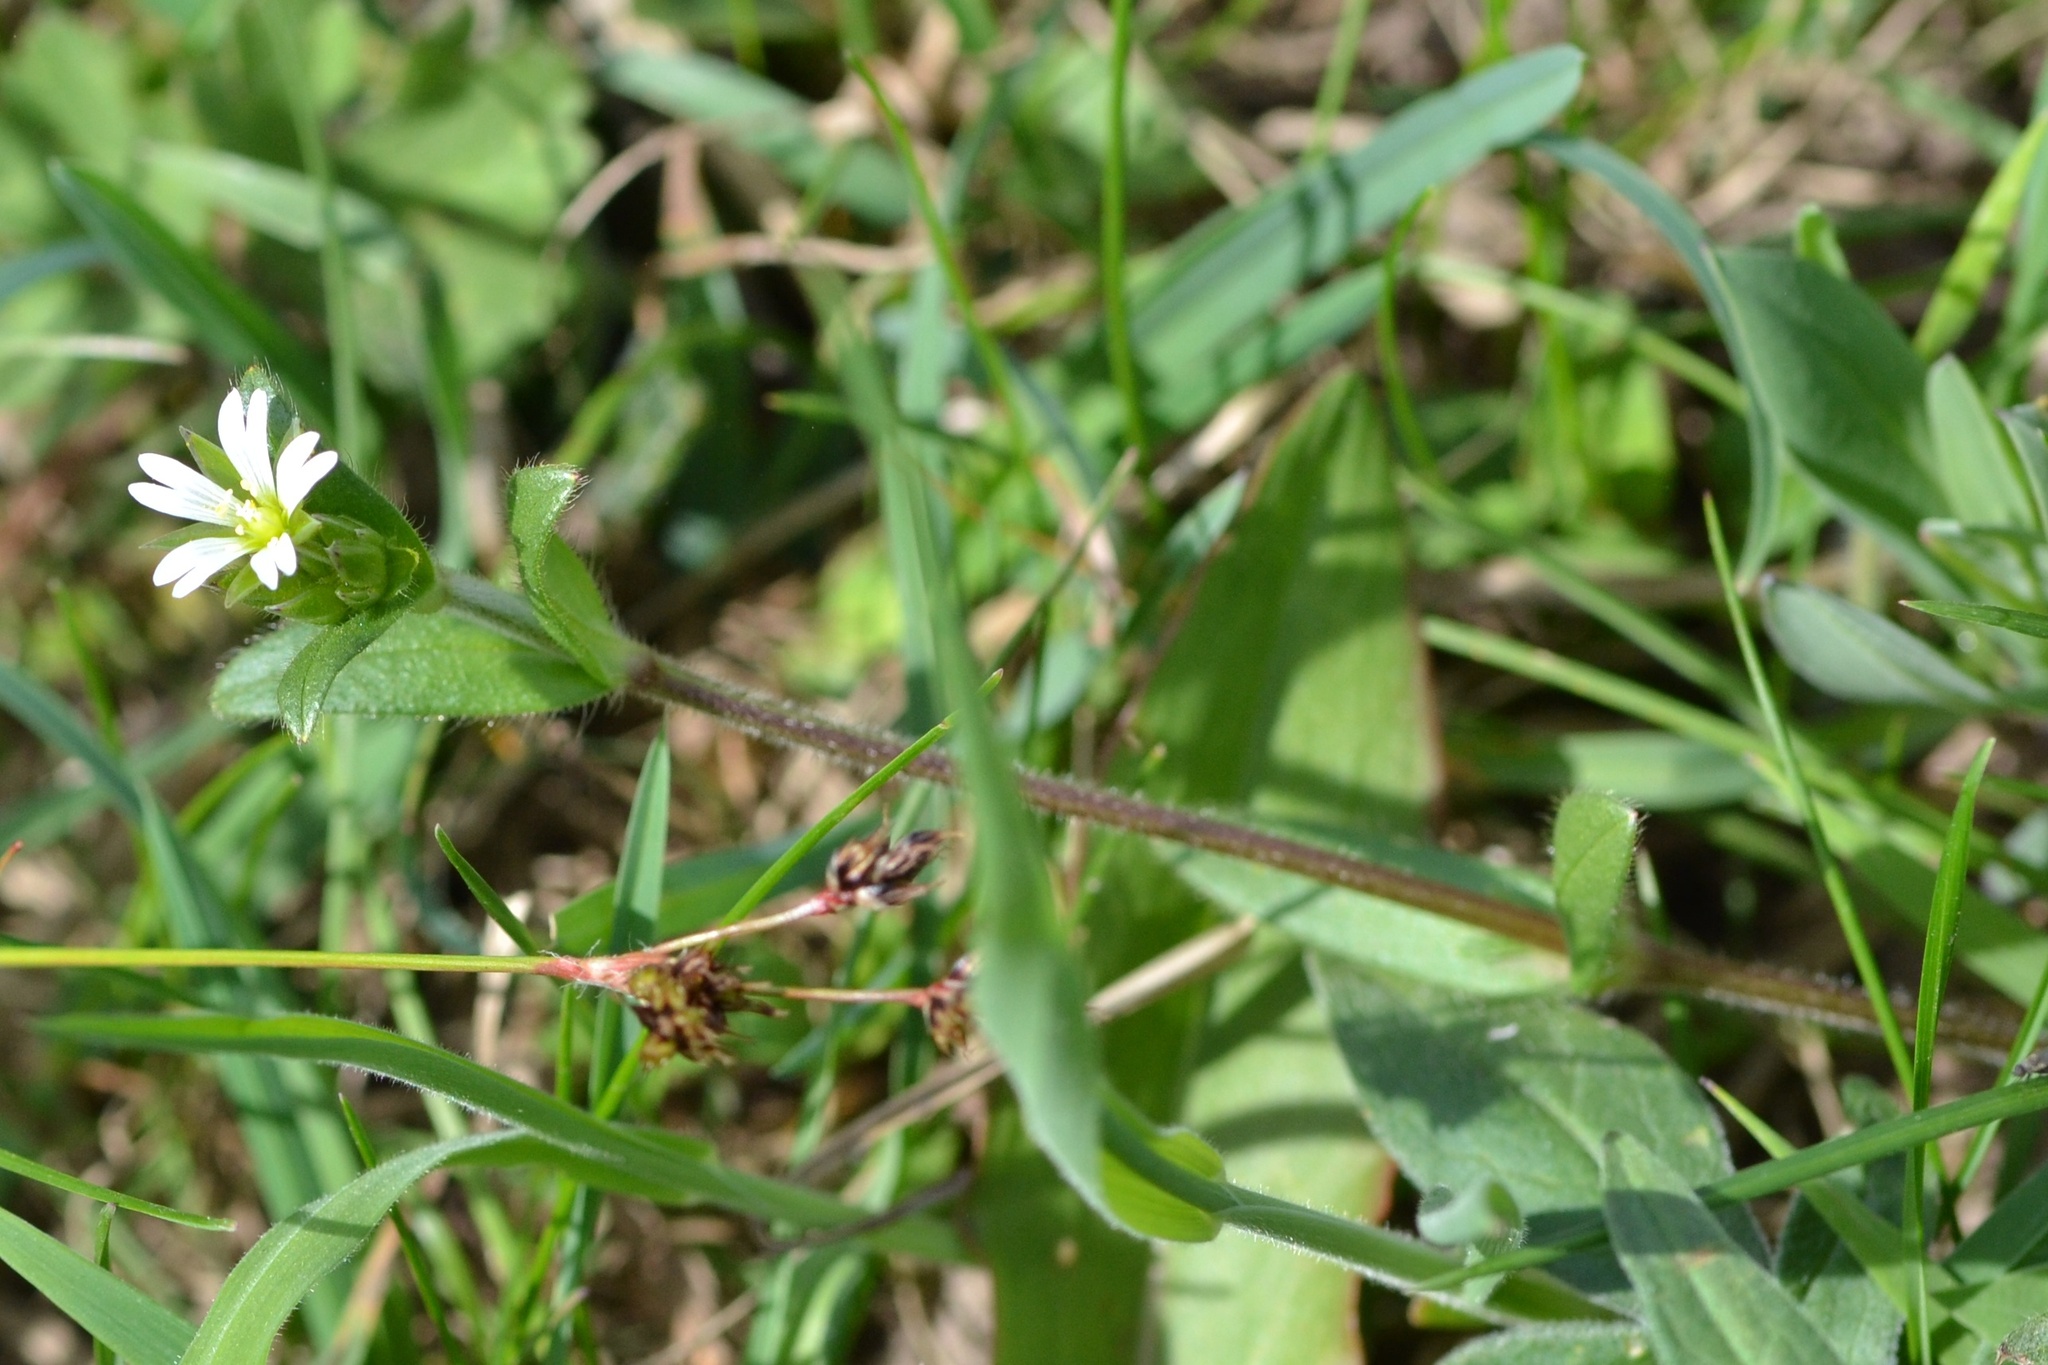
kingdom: Plantae
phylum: Tracheophyta
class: Magnoliopsida
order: Caryophyllales
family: Caryophyllaceae
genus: Cerastium
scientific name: Cerastium holosteoides
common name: Big chickweed
